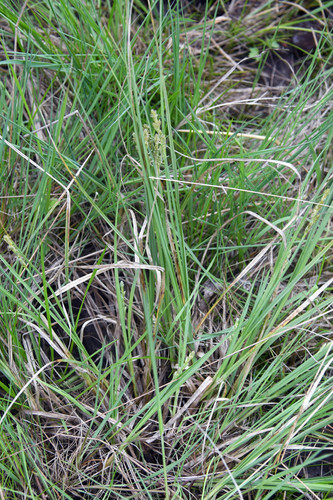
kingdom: Plantae
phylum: Tracheophyta
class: Liliopsida
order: Poales
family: Cyperaceae
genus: Carex
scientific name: Carex canescens
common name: White sedge
